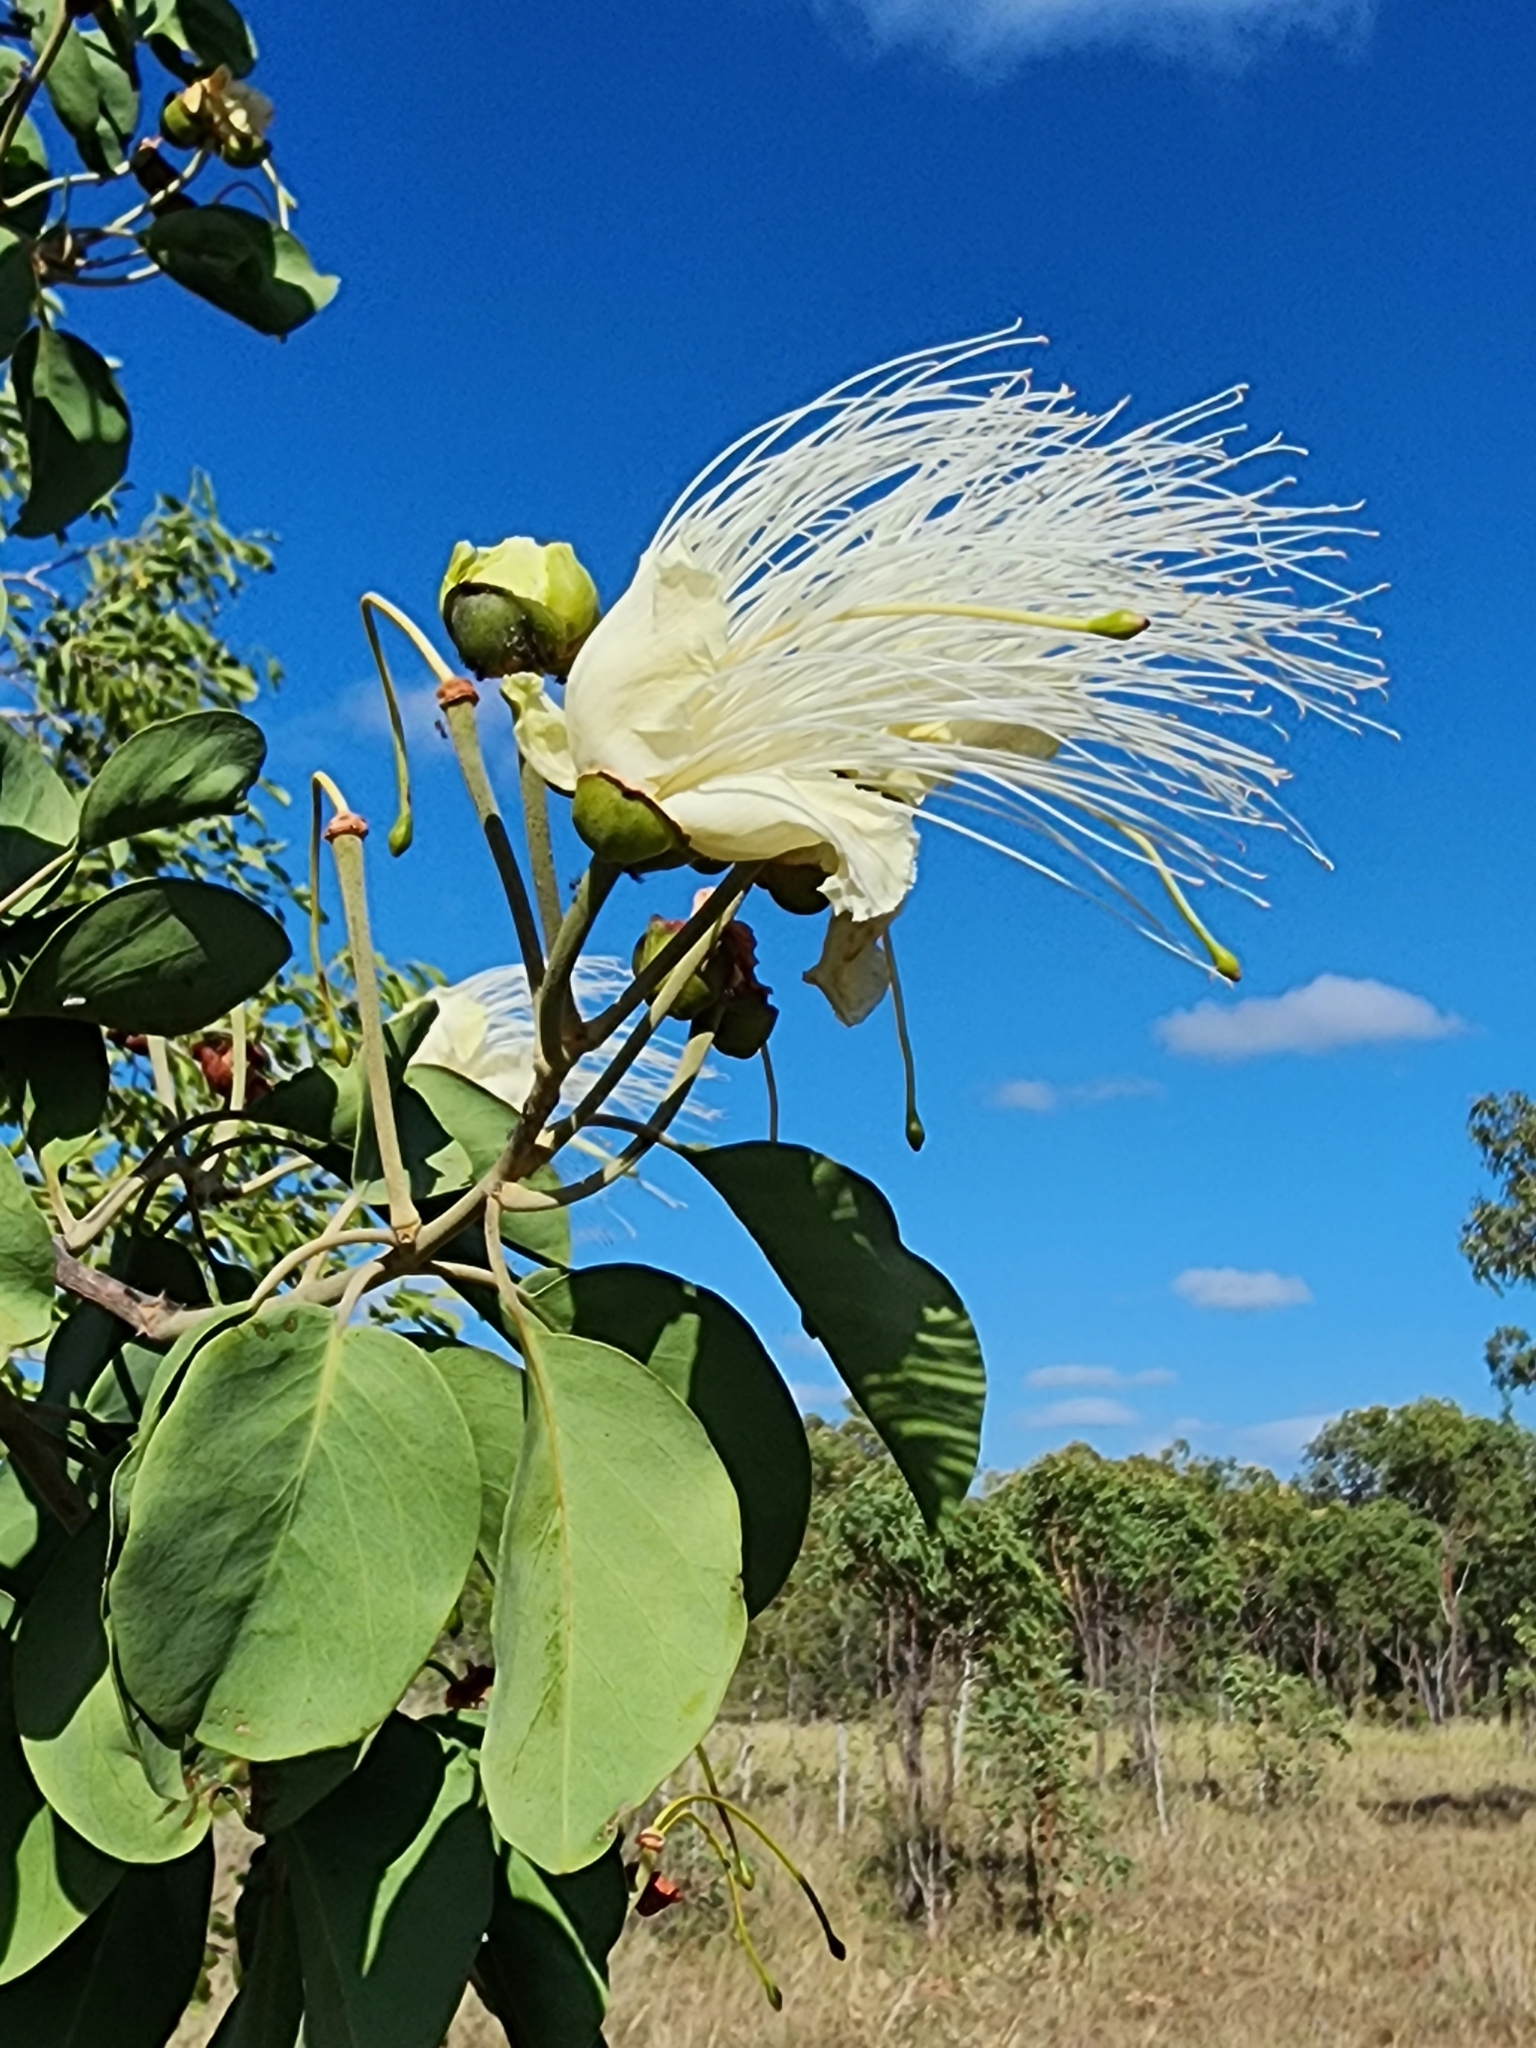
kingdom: Plantae
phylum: Tracheophyta
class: Magnoliopsida
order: Brassicales
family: Capparaceae
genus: Capparis
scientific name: Capparis canescens
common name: Native caper
